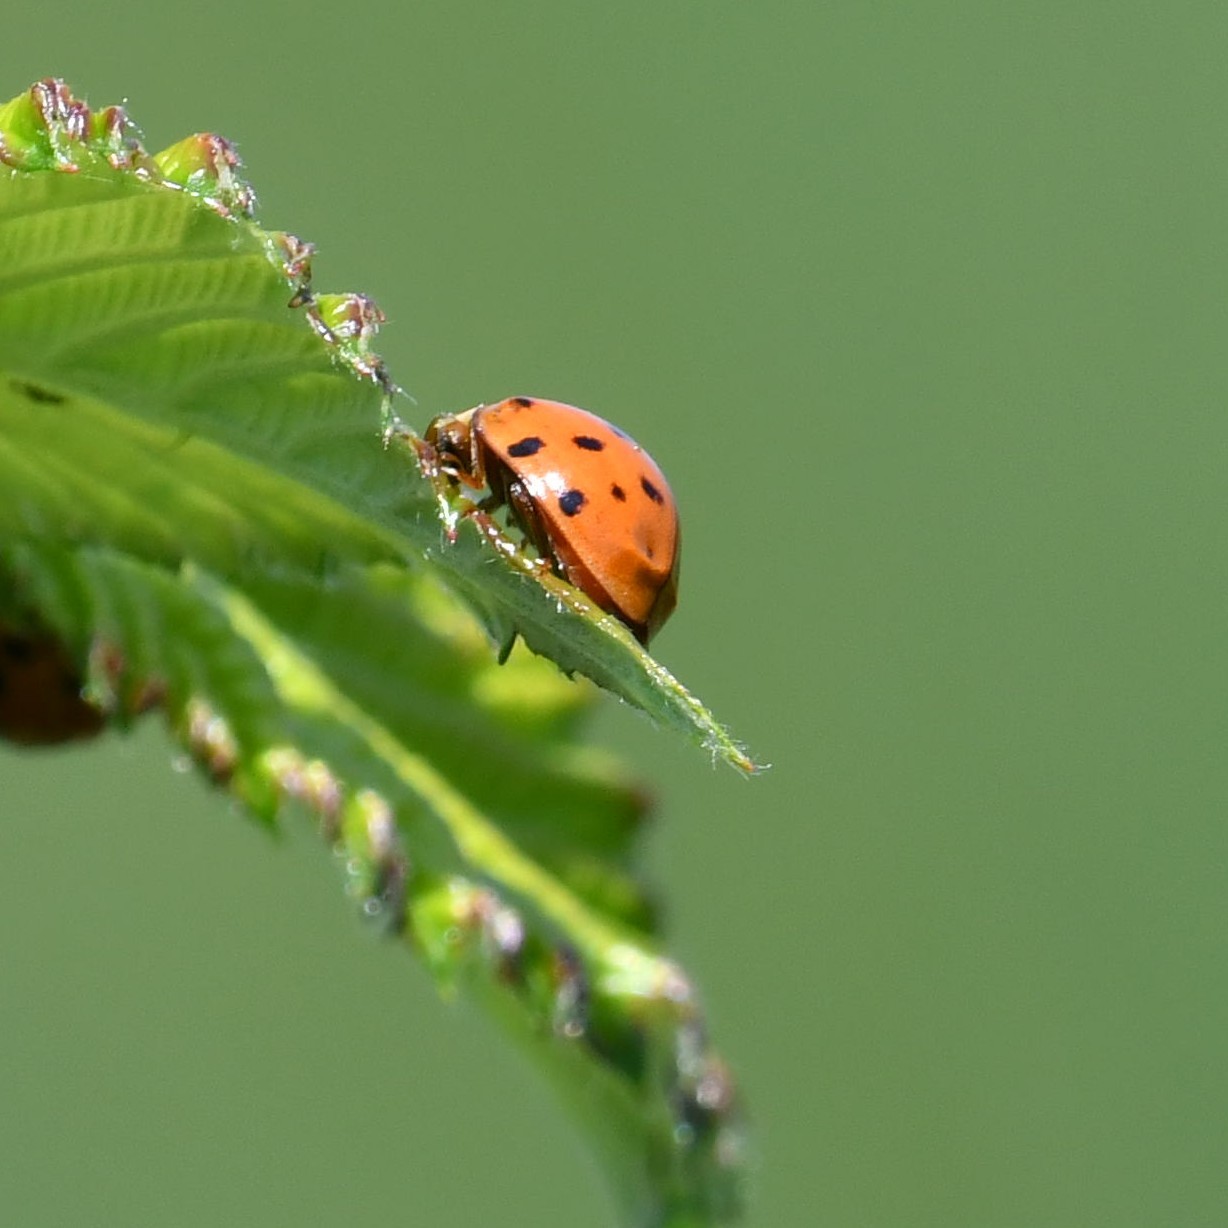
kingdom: Animalia
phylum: Arthropoda
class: Insecta
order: Coleoptera
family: Coccinellidae
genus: Harmonia
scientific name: Harmonia axyridis
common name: Harlequin ladybird
